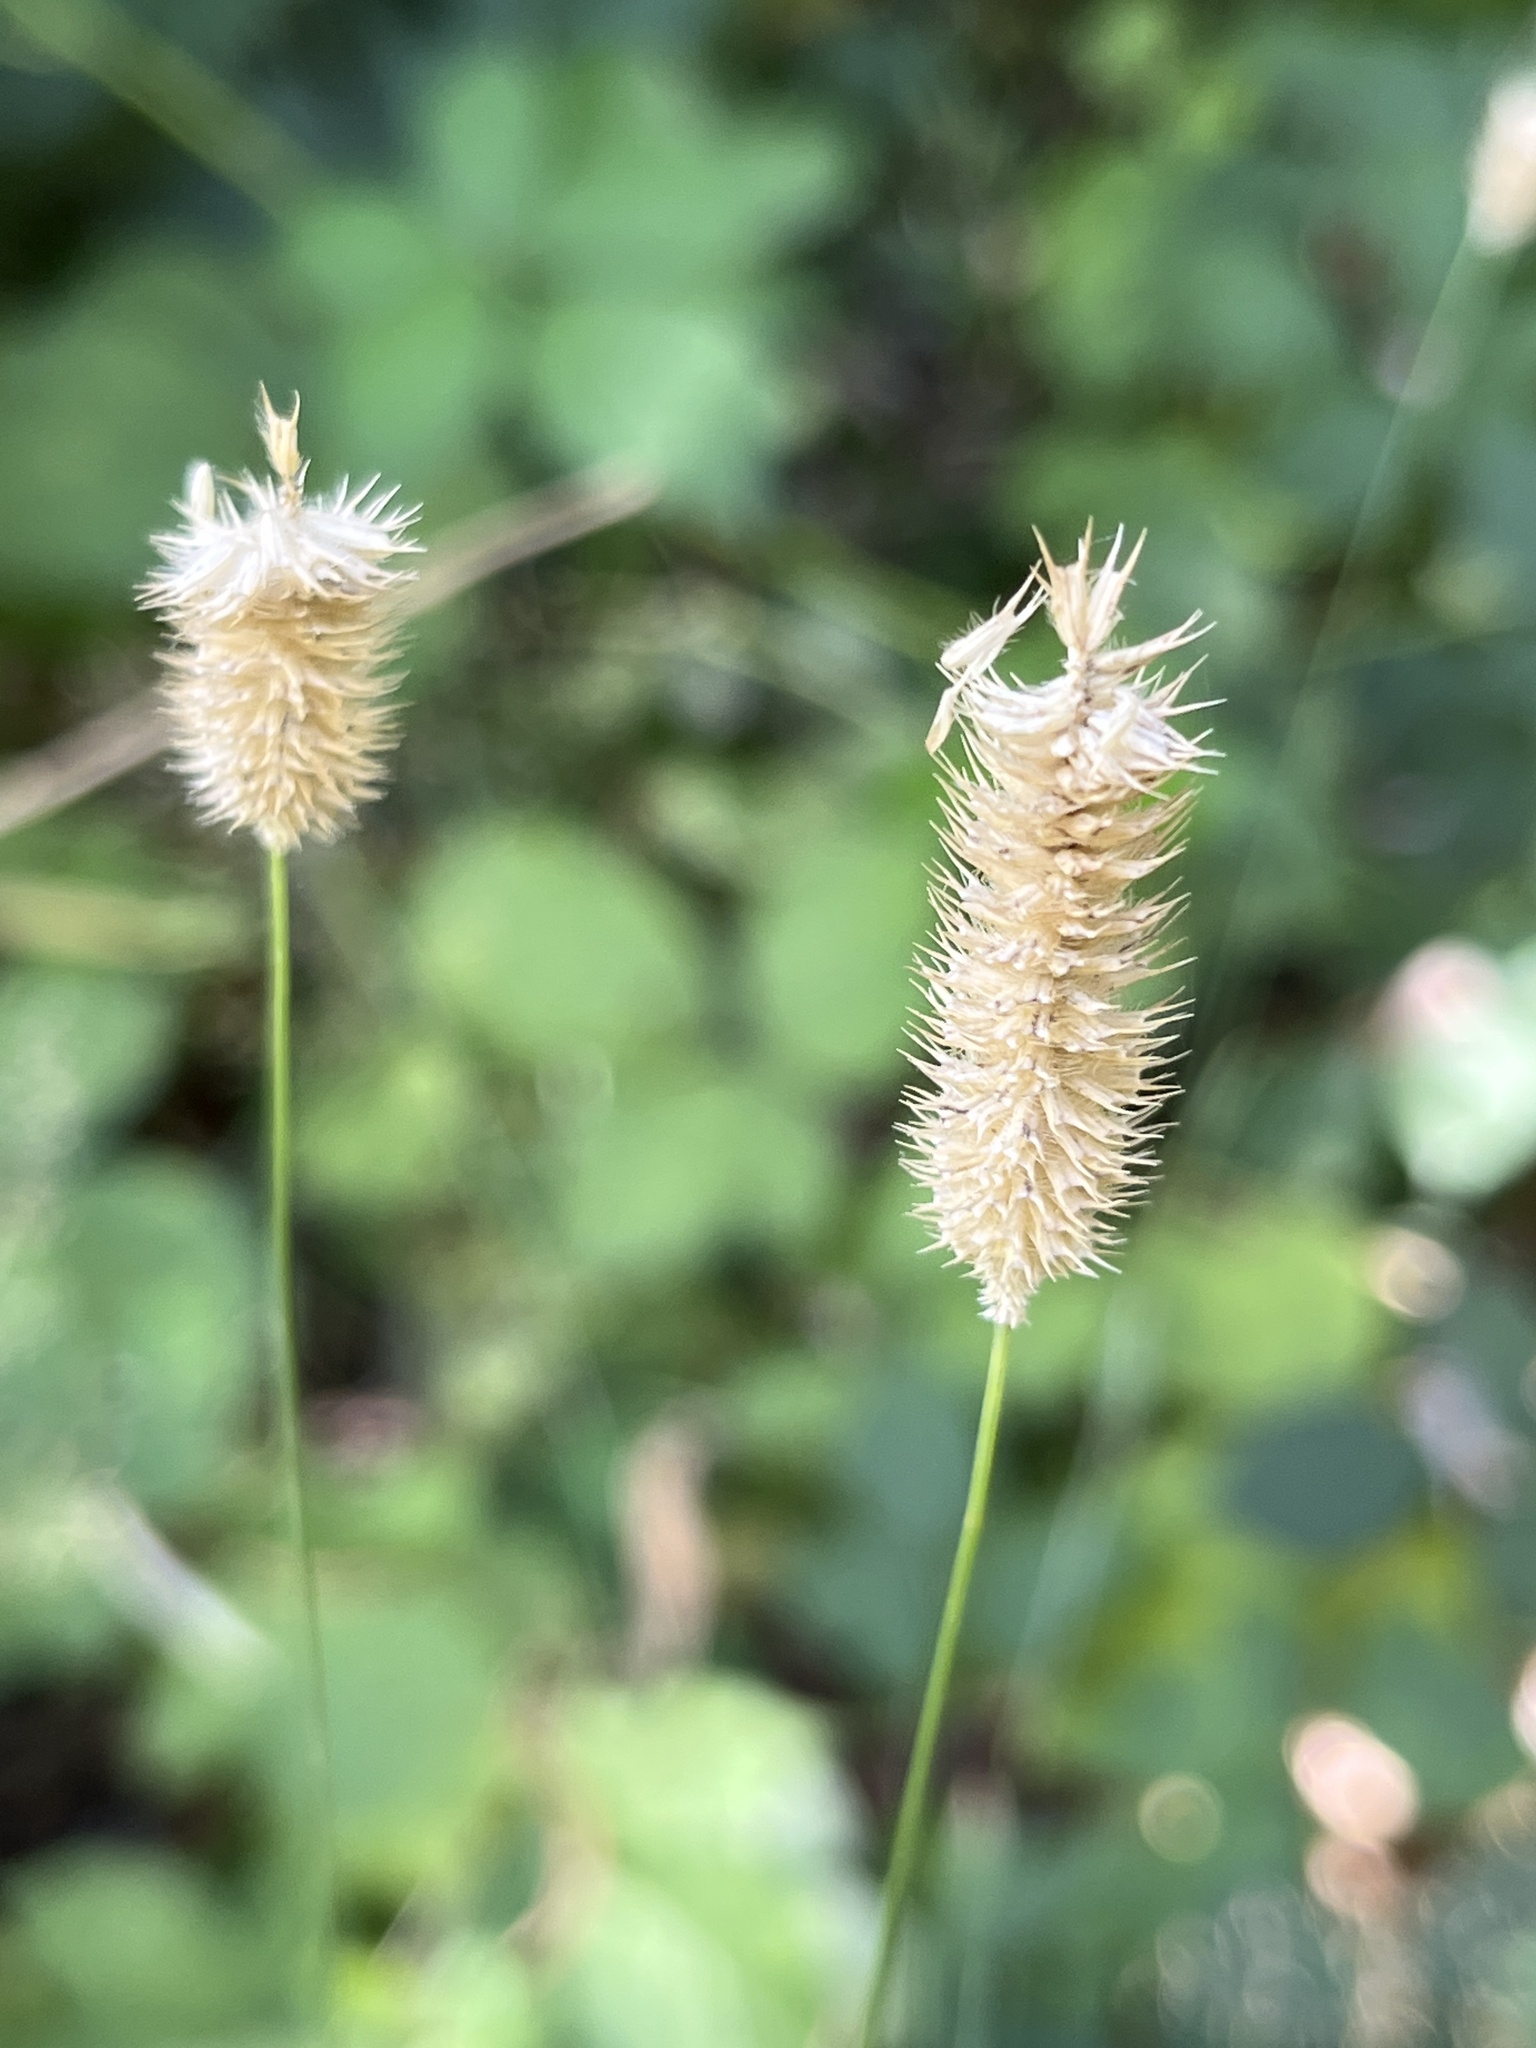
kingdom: Plantae
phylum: Tracheophyta
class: Liliopsida
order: Poales
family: Poaceae
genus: Phleum
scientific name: Phleum pratense
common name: Timothy grass
